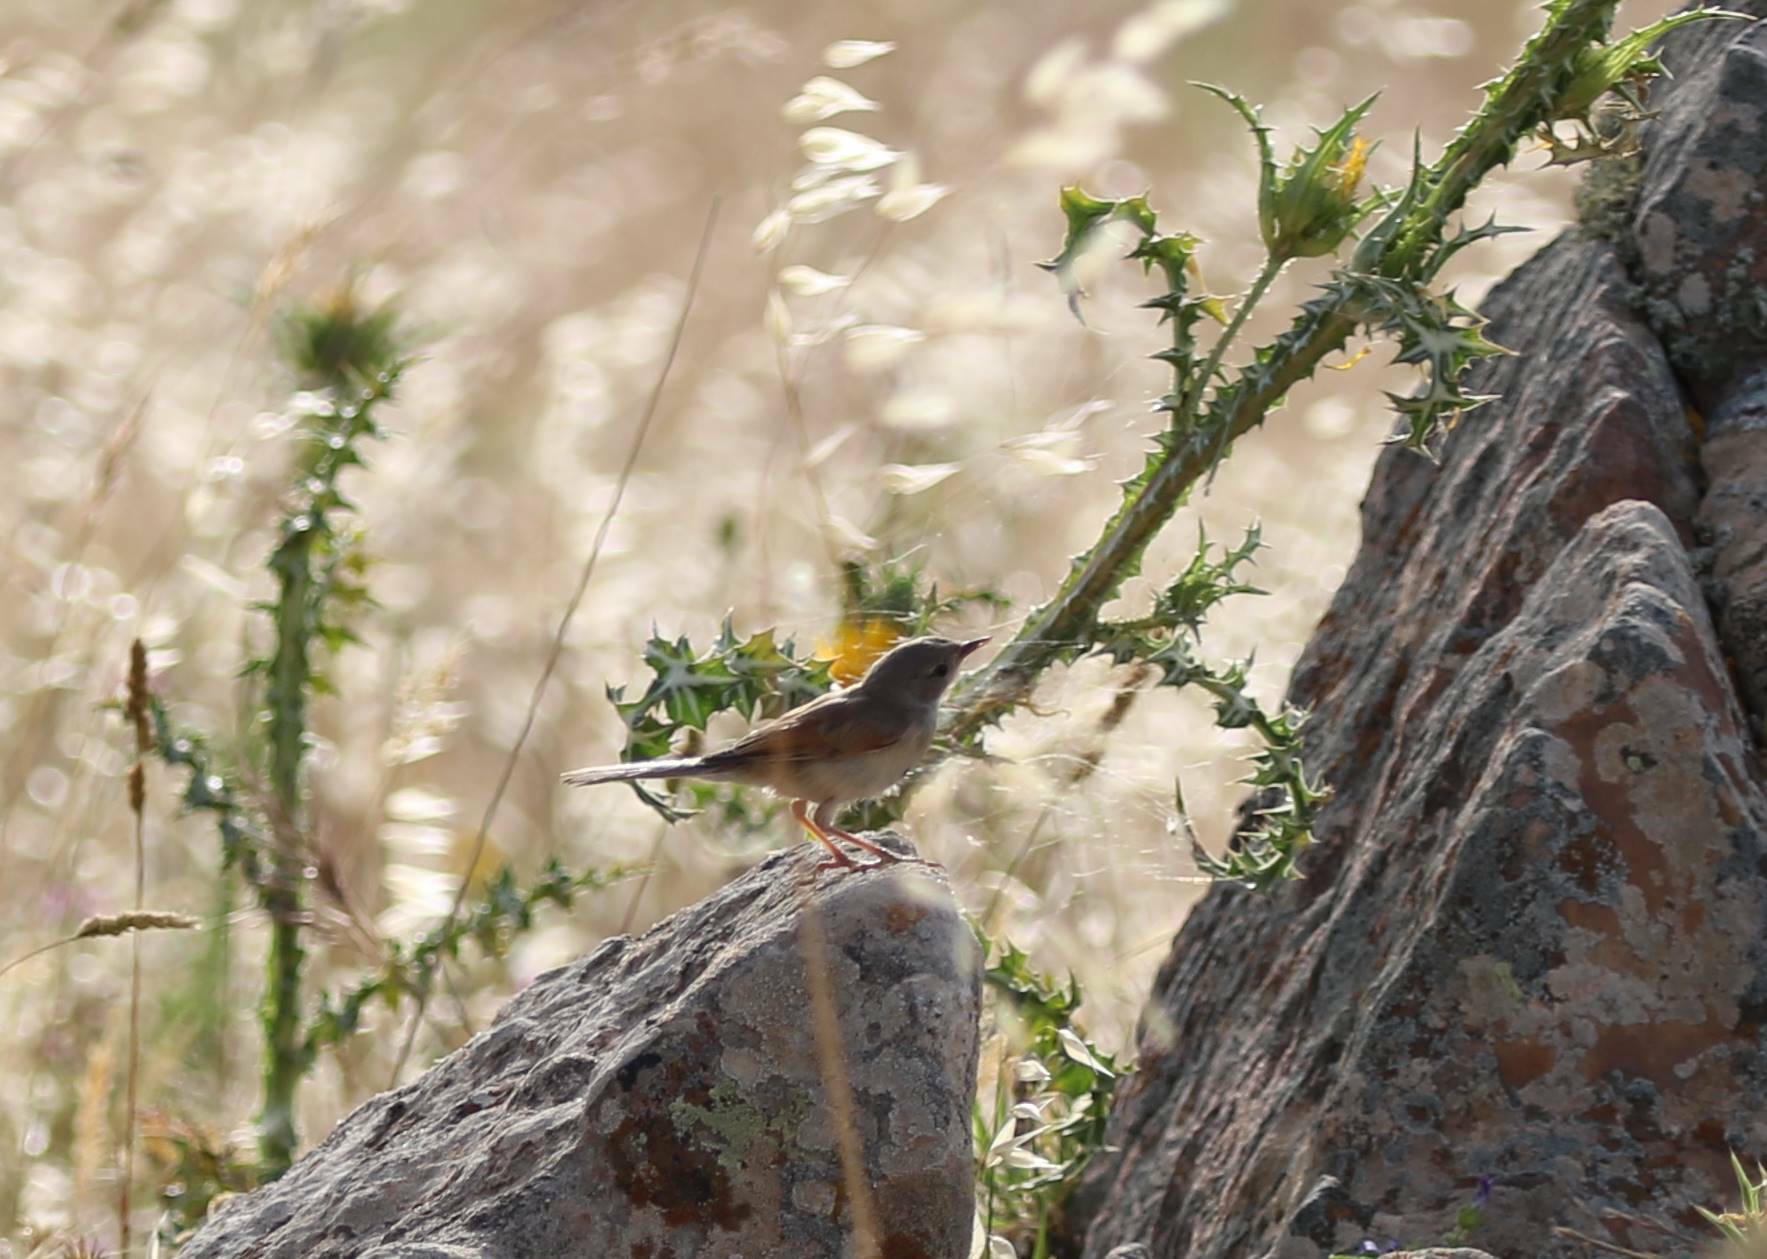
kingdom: Animalia
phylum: Chordata
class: Aves
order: Passeriformes
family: Sylviidae
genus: Sylvia
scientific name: Sylvia communis
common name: Common whitethroat
